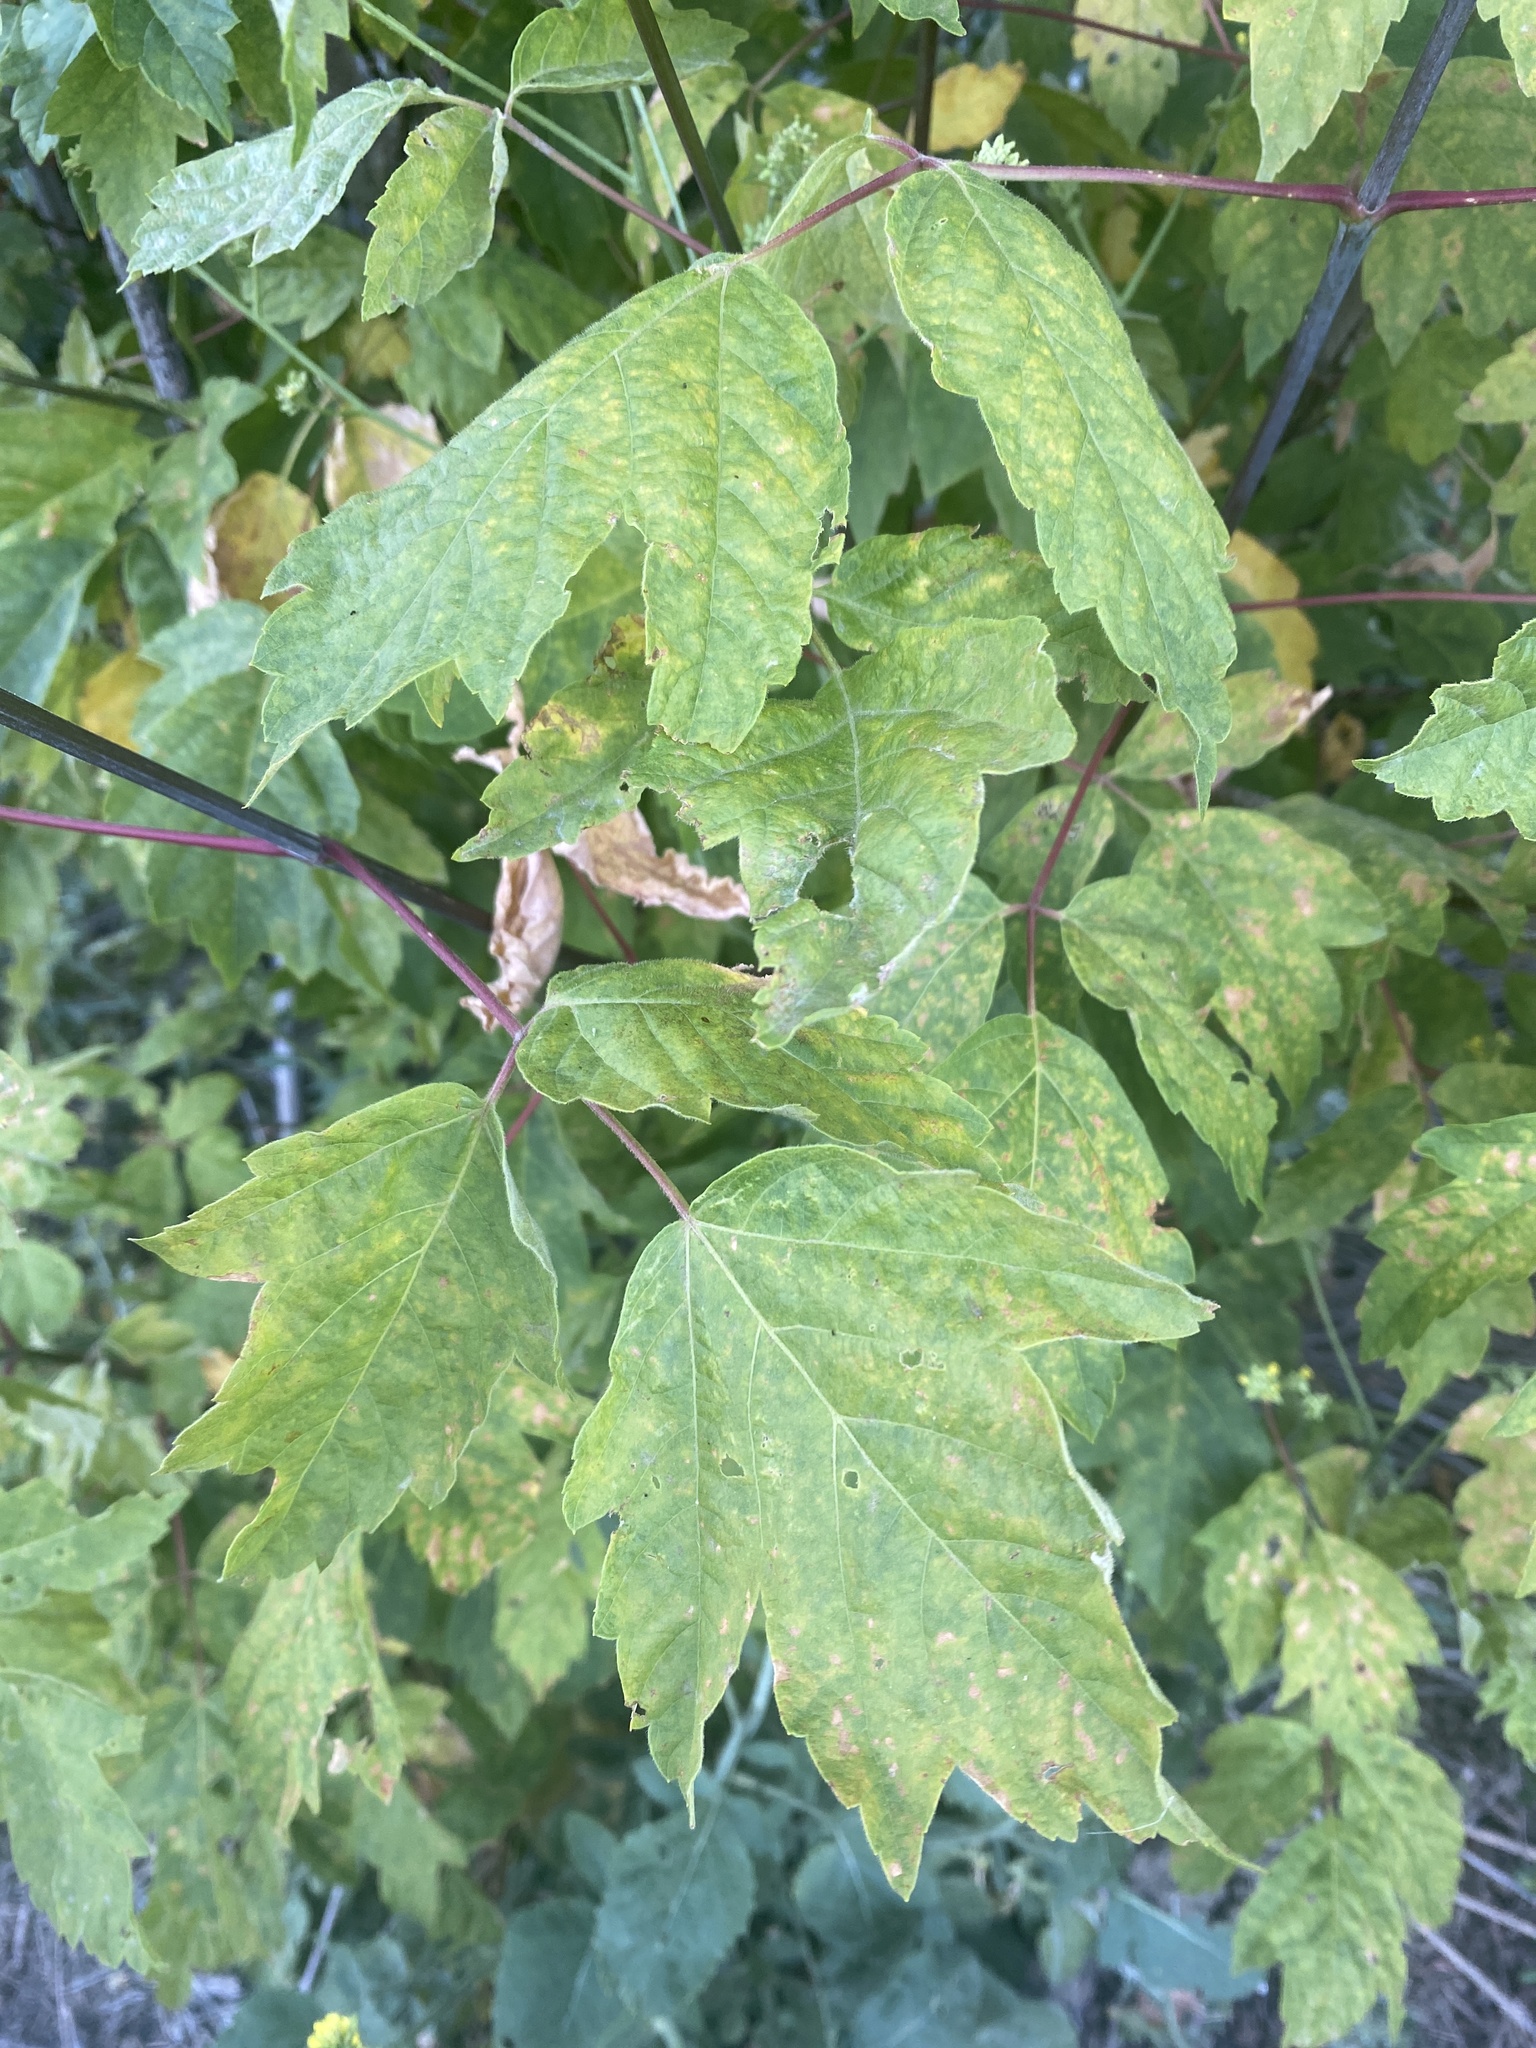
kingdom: Plantae
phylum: Tracheophyta
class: Magnoliopsida
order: Sapindales
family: Sapindaceae
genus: Acer
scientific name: Acer negundo
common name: Ashleaf maple
